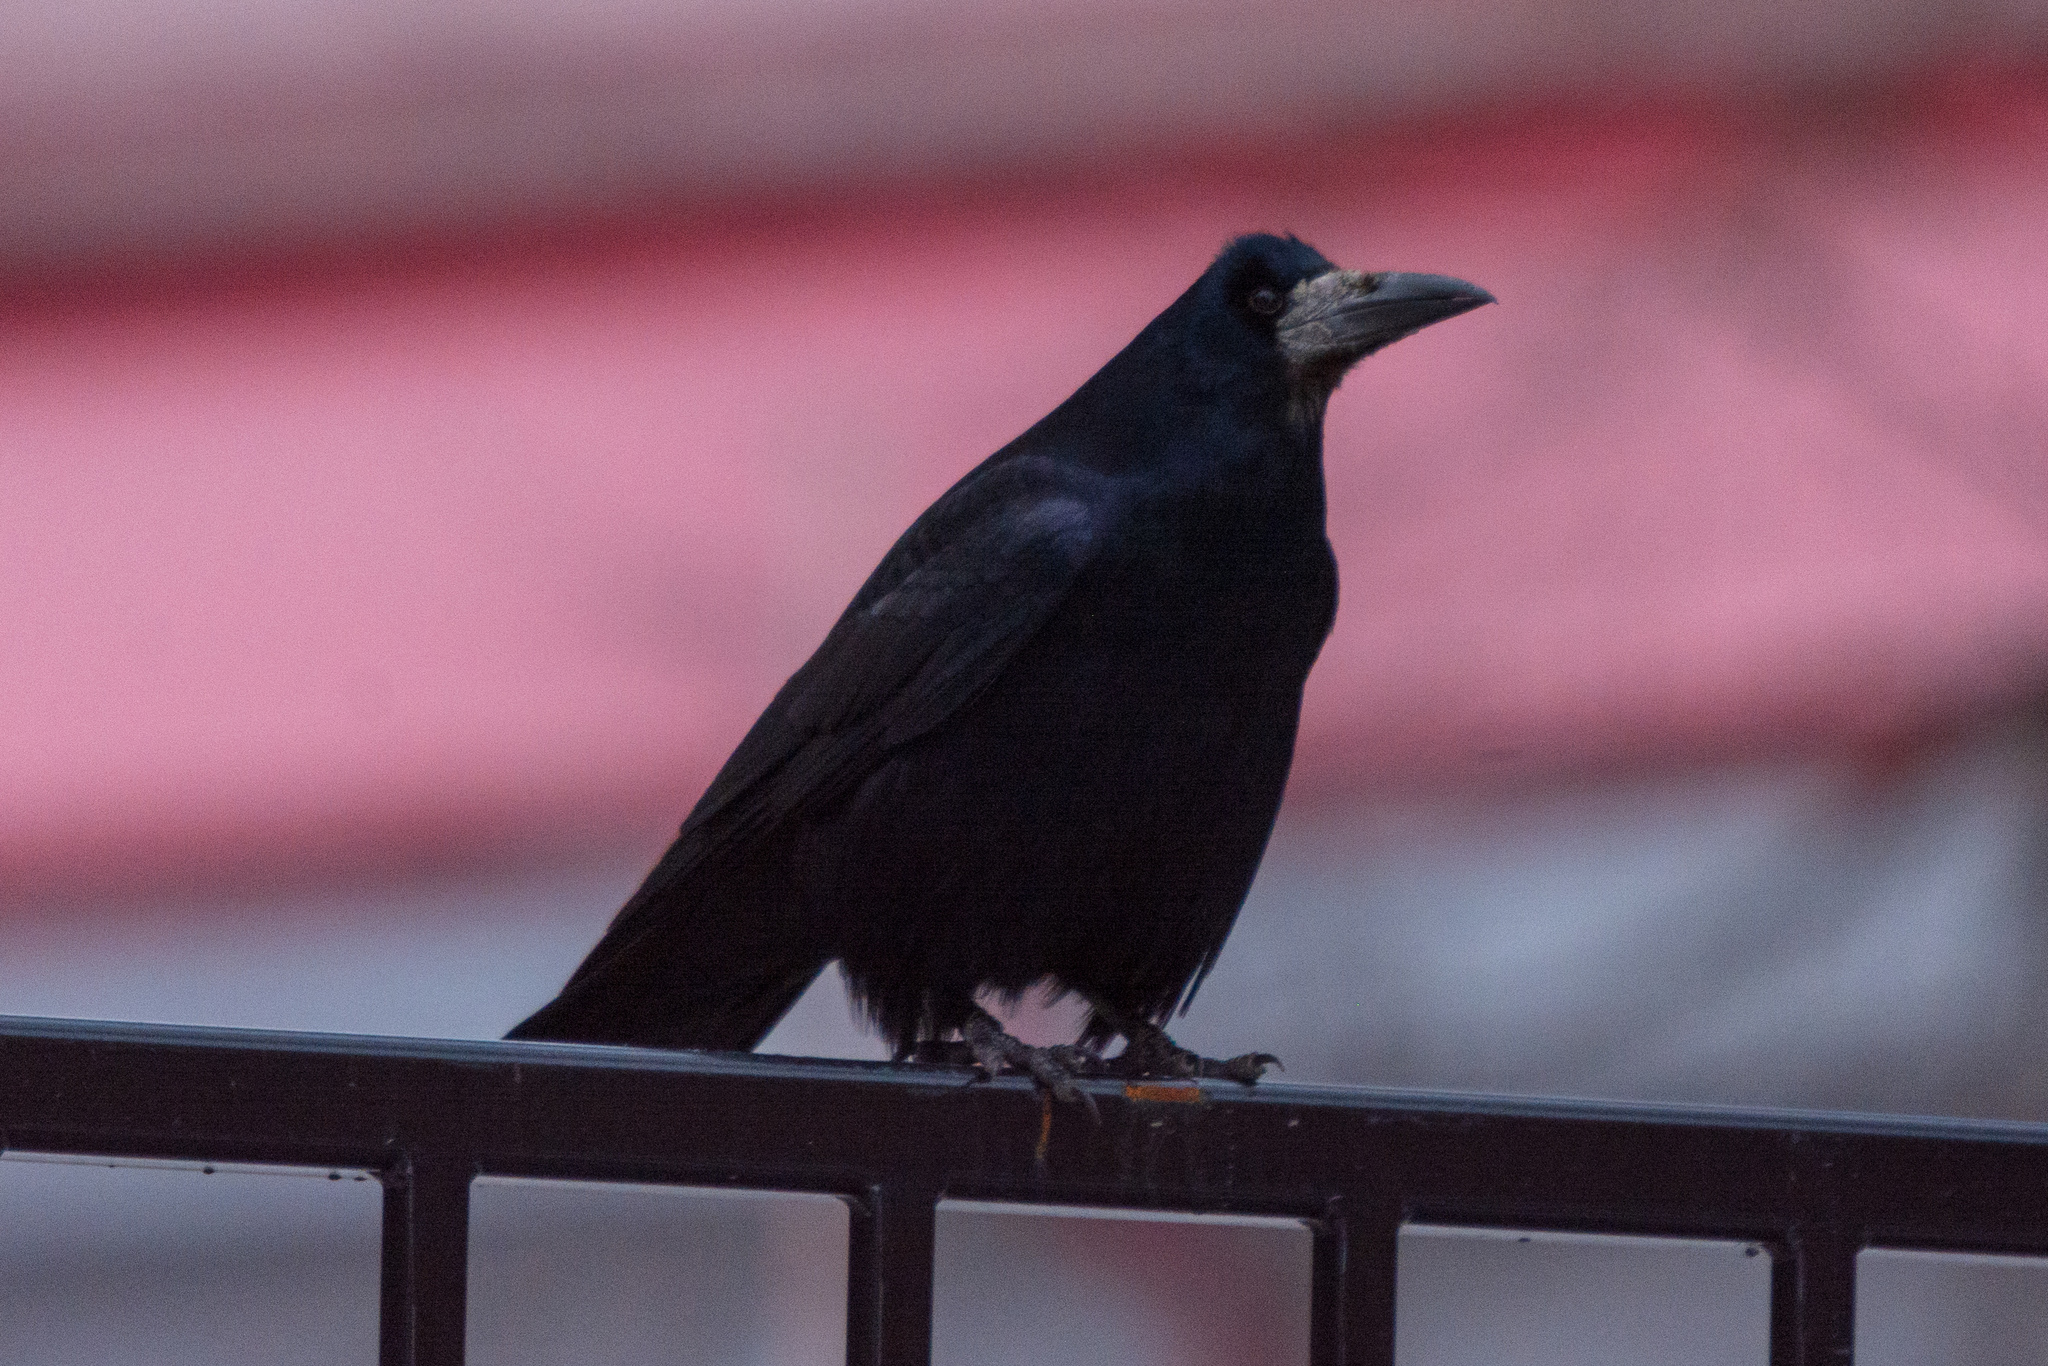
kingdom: Animalia
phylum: Chordata
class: Aves
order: Passeriformes
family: Corvidae
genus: Corvus
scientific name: Corvus frugilegus
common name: Rook
